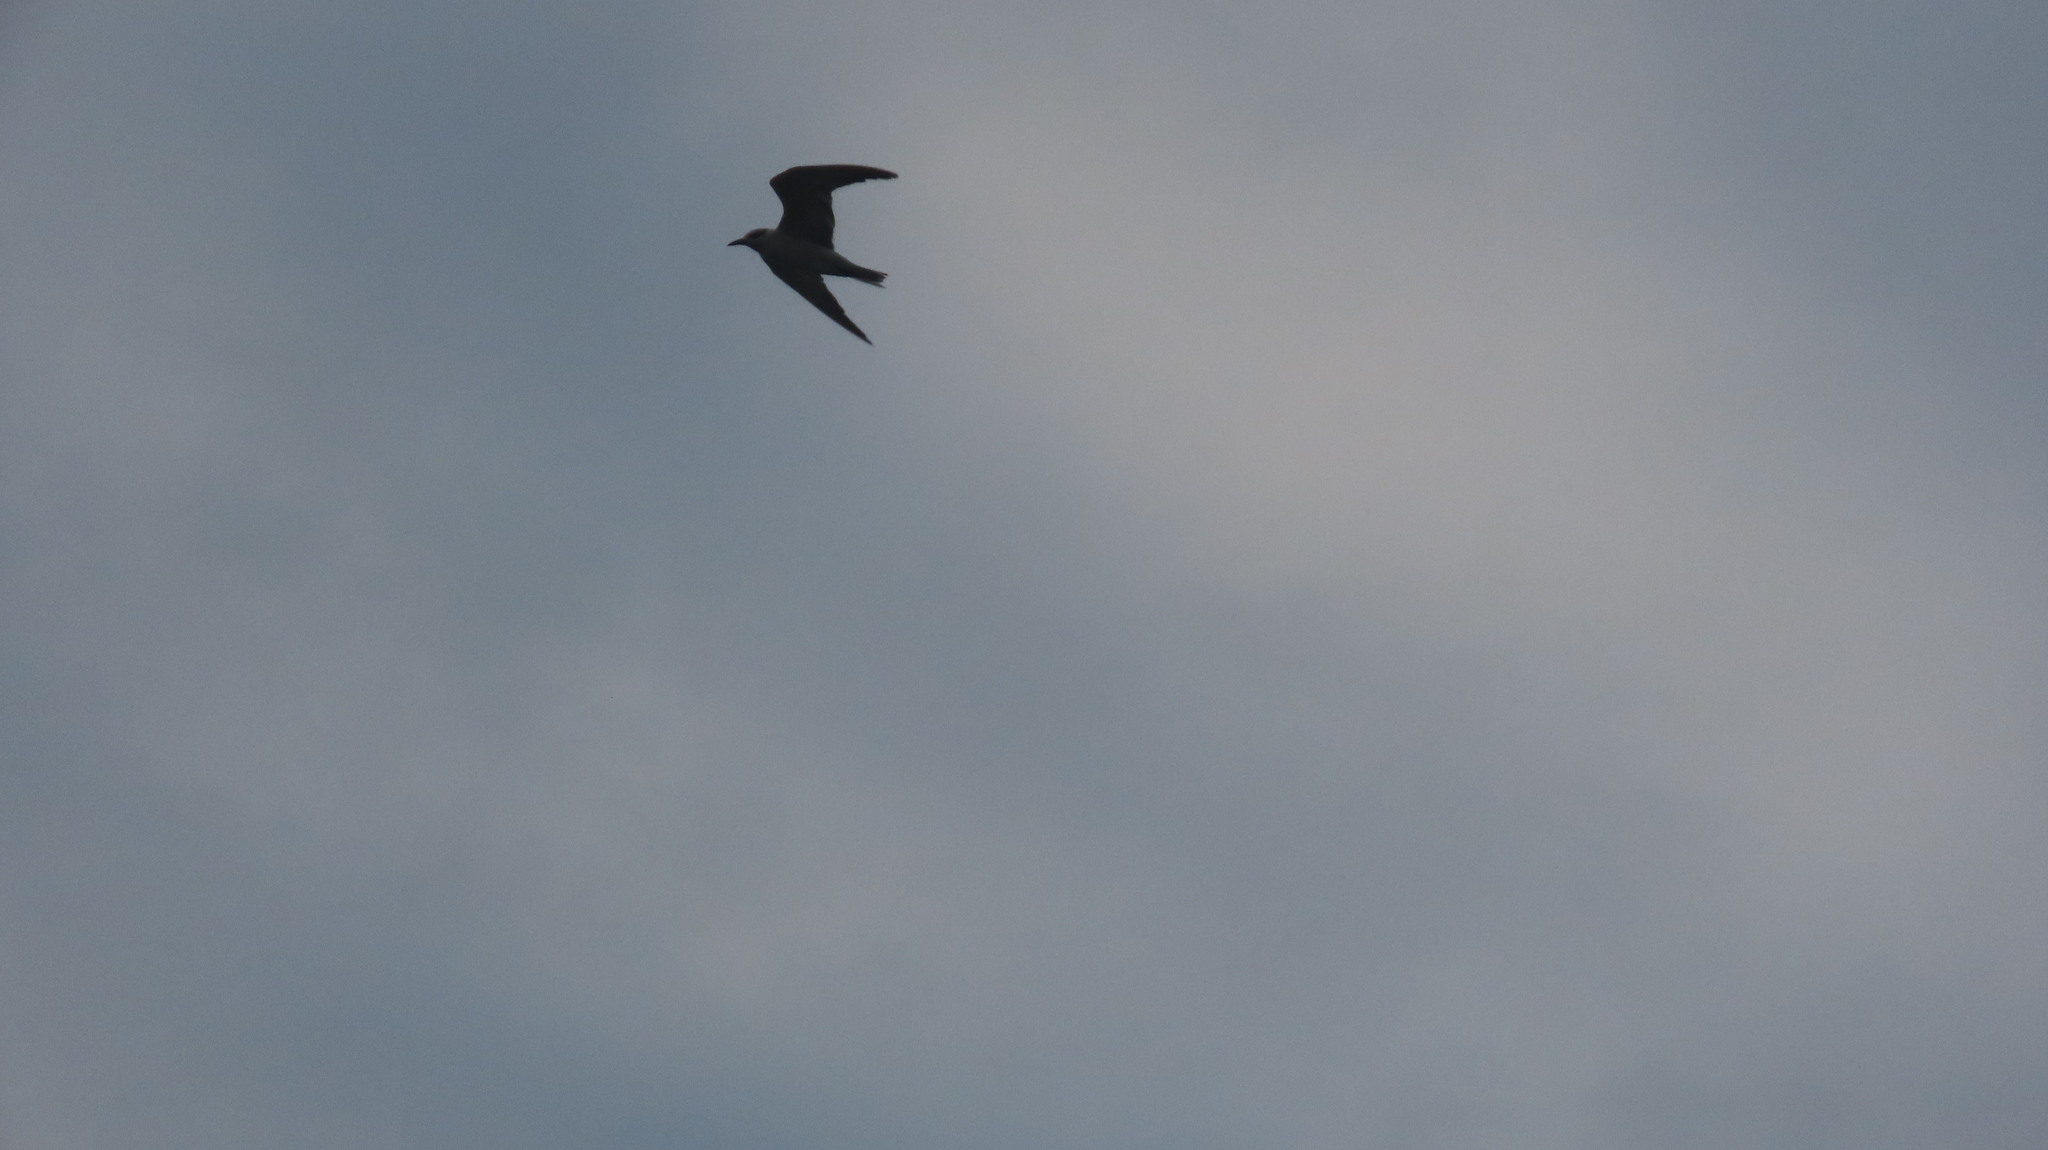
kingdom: Animalia
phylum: Chordata
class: Aves
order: Charadriiformes
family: Laridae
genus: Chlidonias
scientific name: Chlidonias hybrida
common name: Whiskered tern
